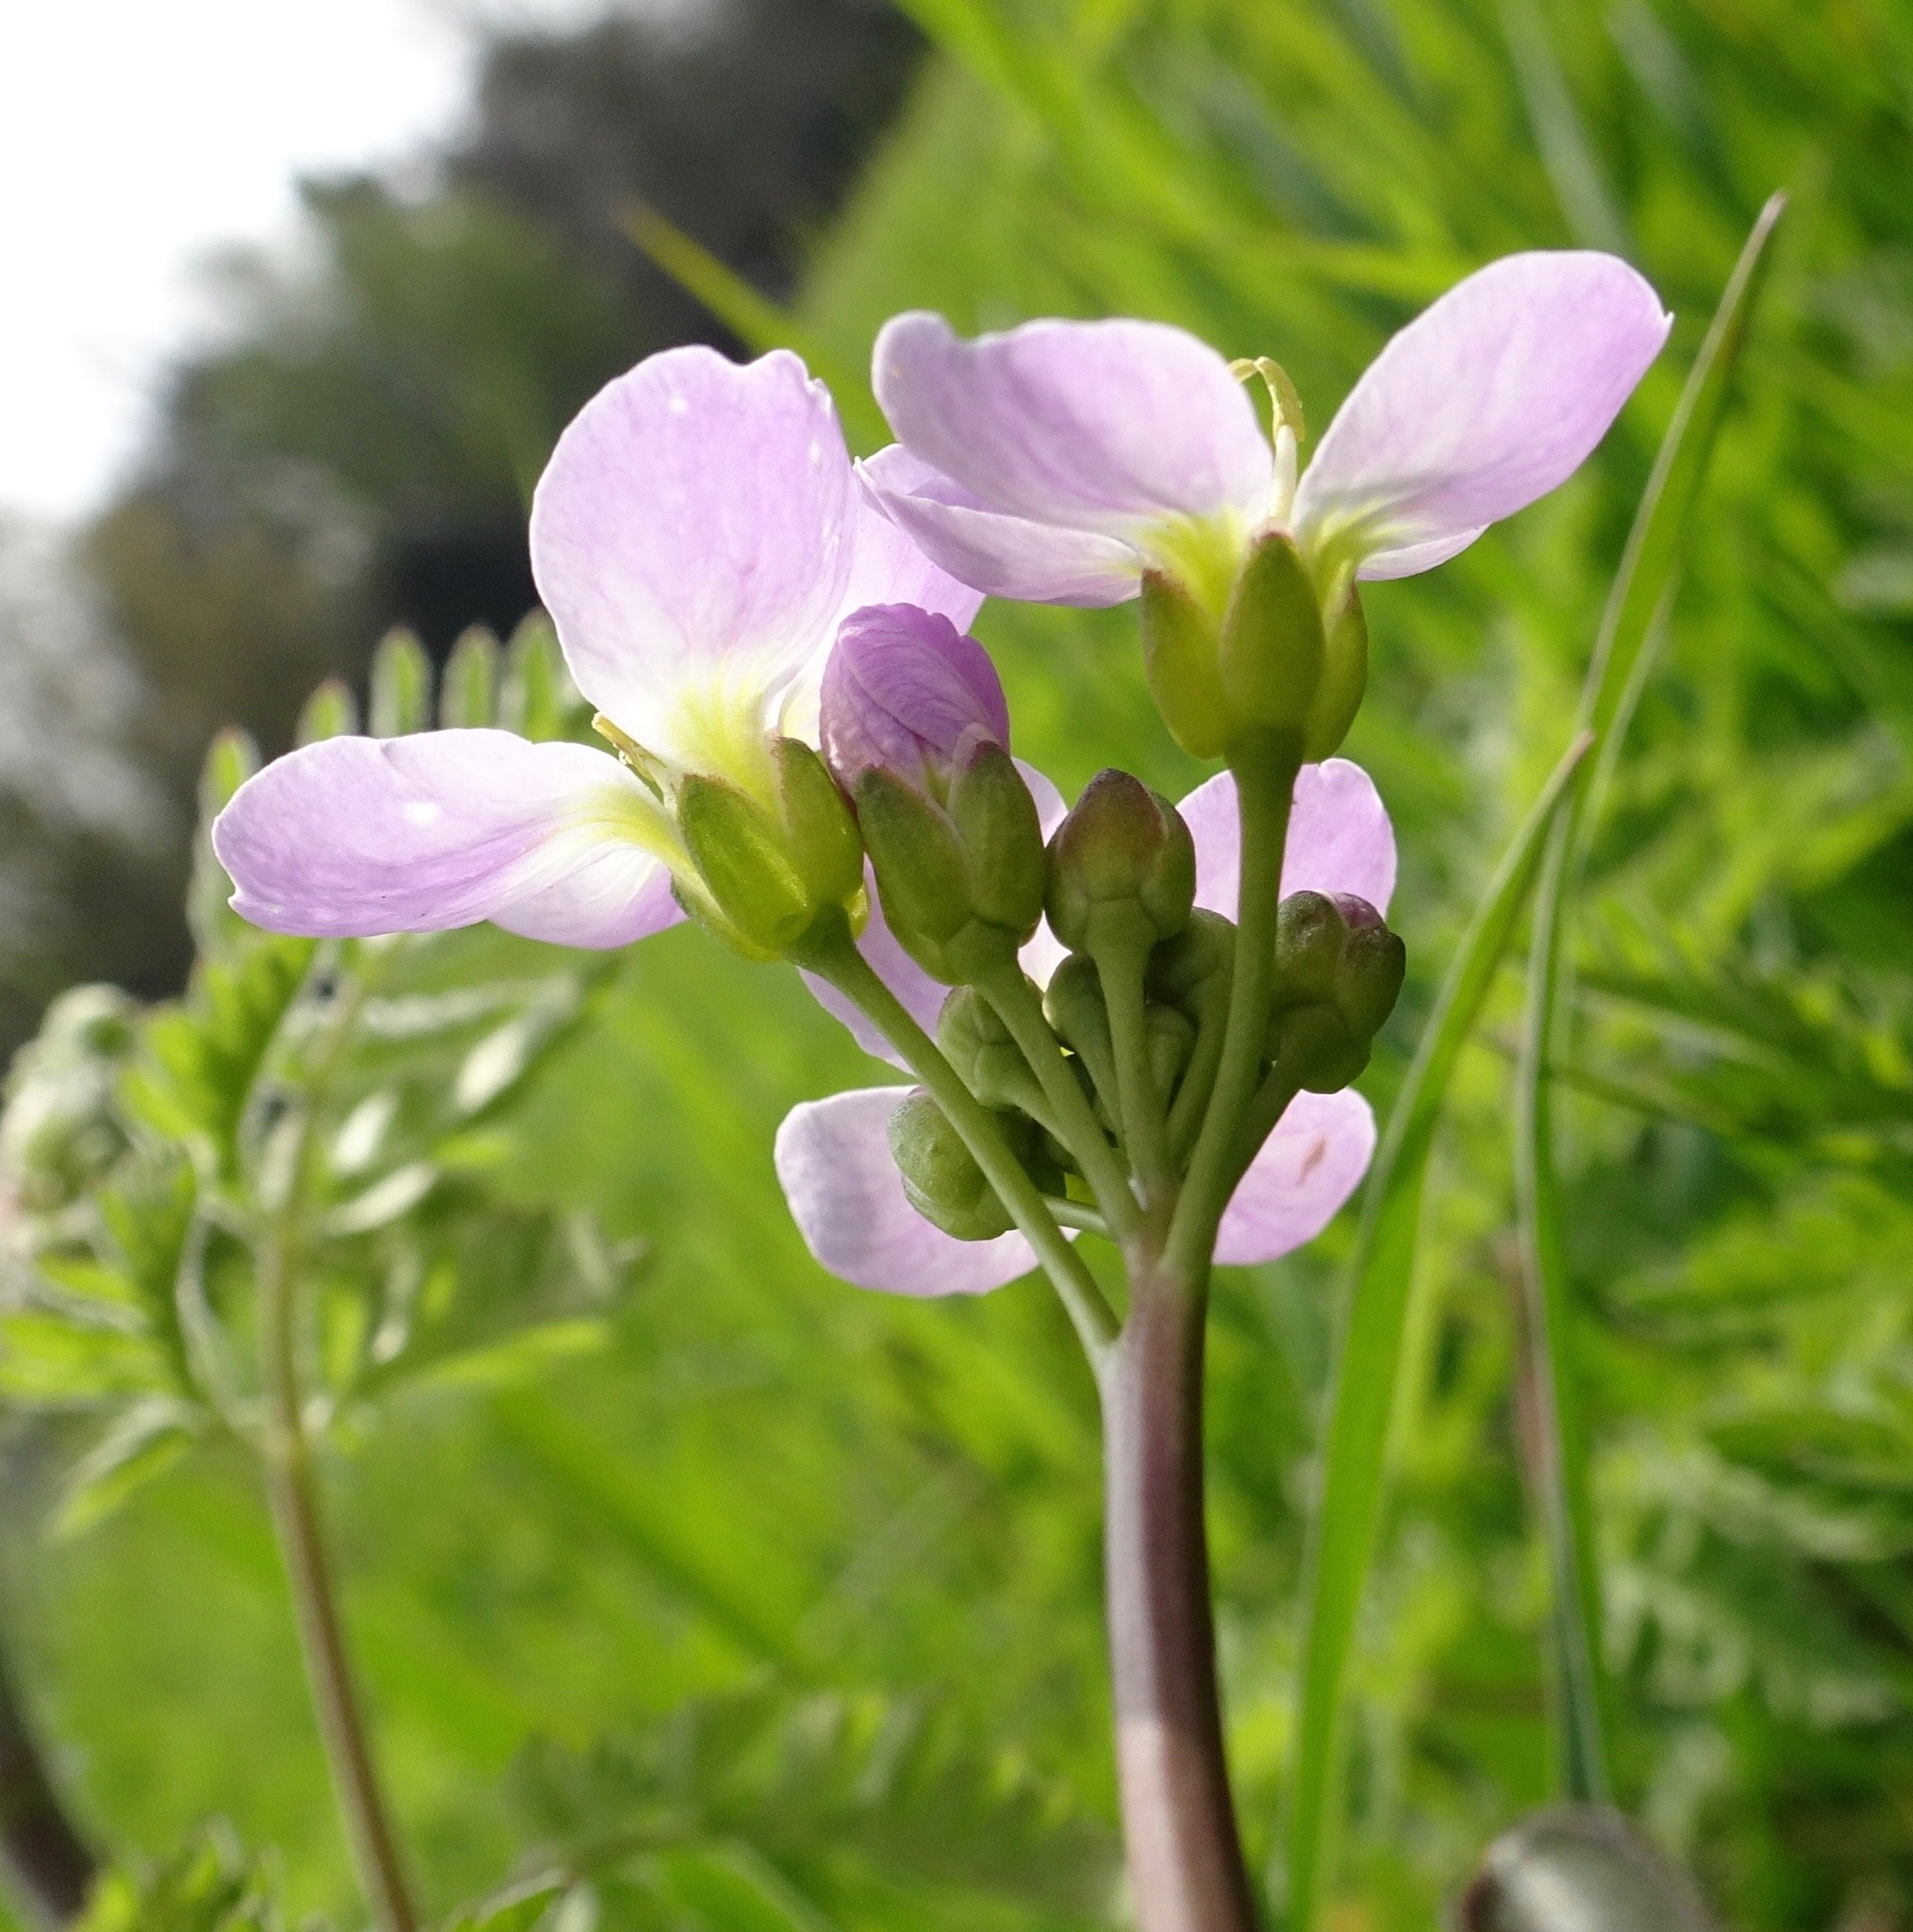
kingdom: Plantae
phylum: Tracheophyta
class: Magnoliopsida
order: Brassicales
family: Brassicaceae
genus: Cardamine
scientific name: Cardamine pratensis
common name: Cuckoo flower
